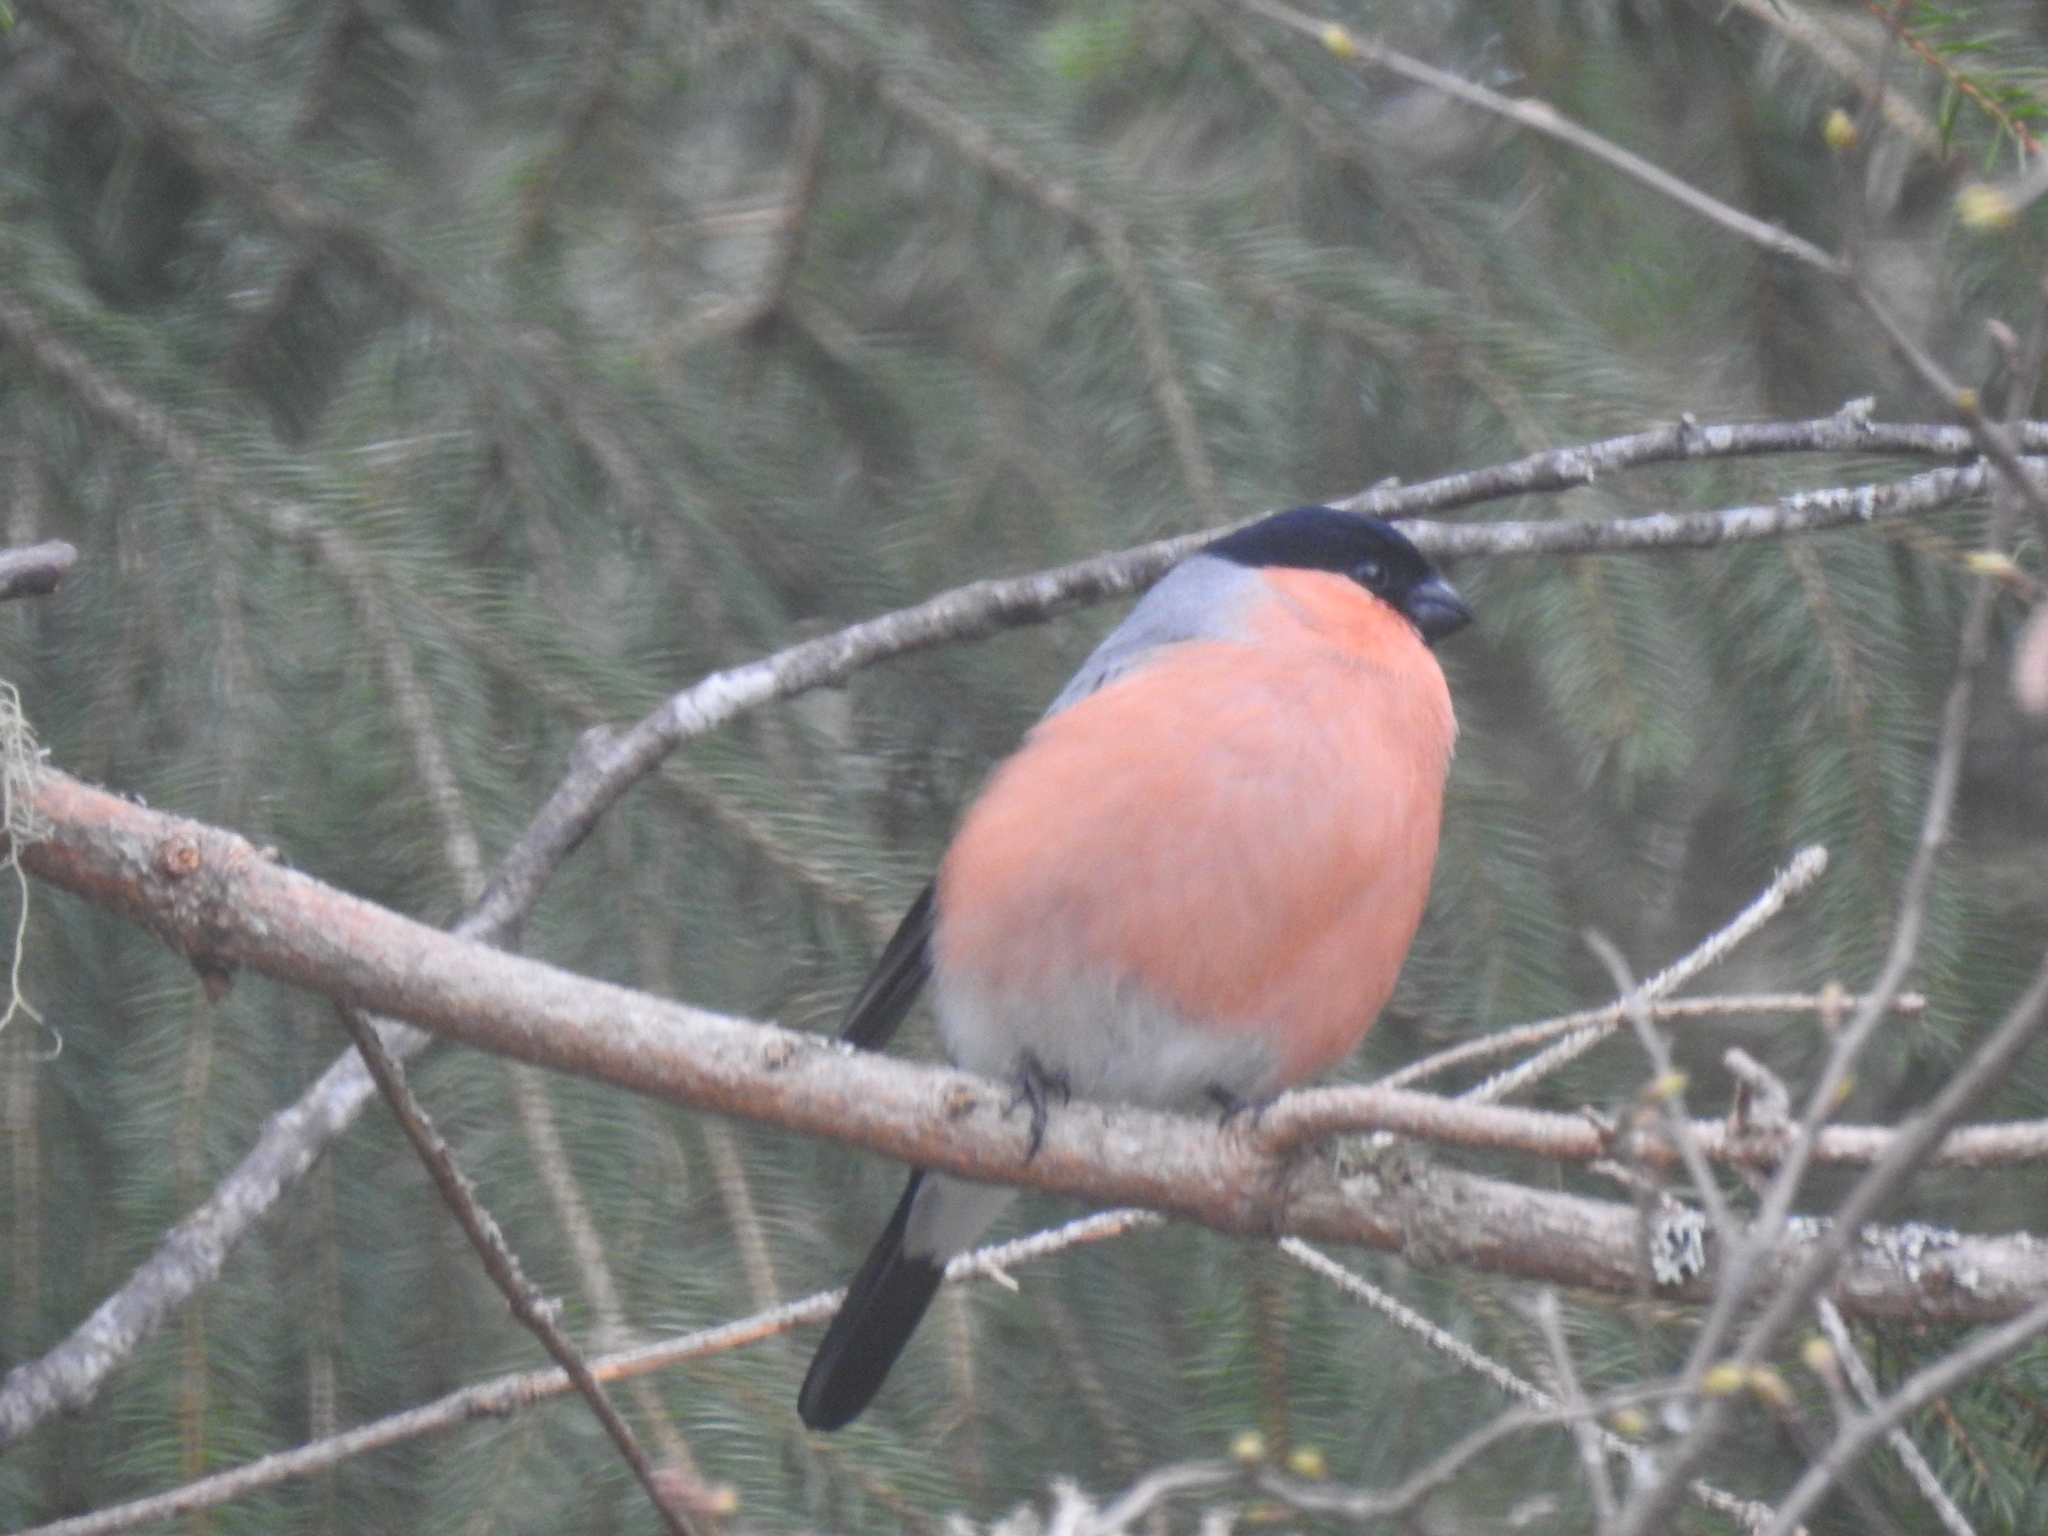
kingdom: Animalia
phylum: Chordata
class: Aves
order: Passeriformes
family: Fringillidae
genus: Pyrrhula
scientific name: Pyrrhula pyrrhula
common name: Eurasian bullfinch
